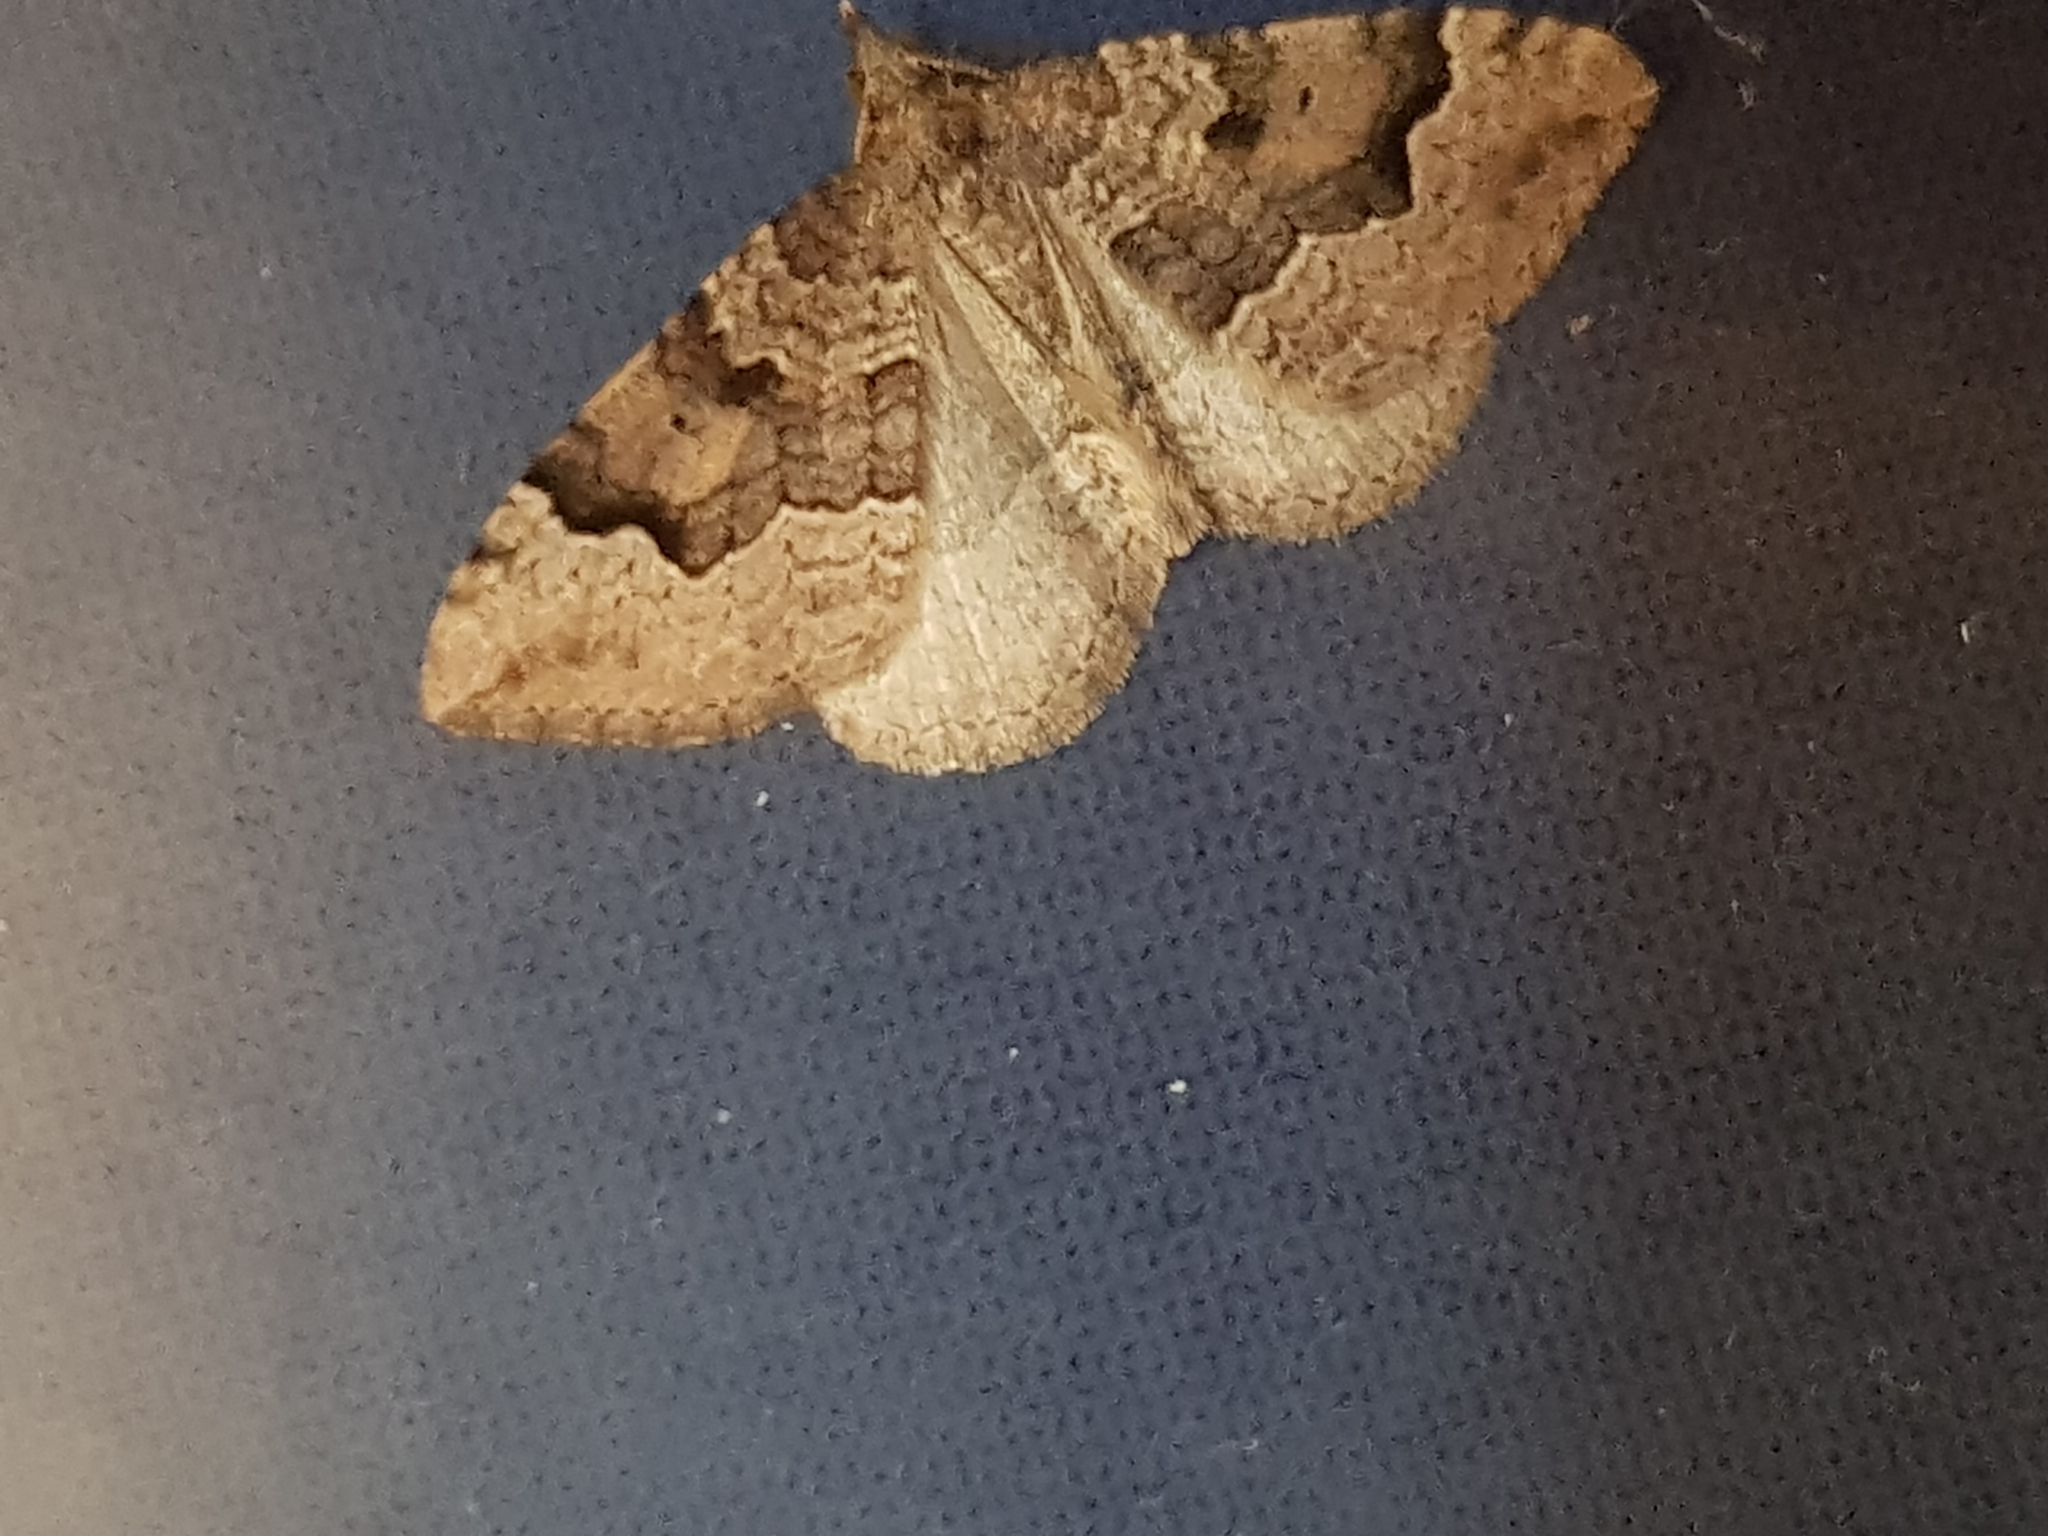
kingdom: Animalia
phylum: Arthropoda
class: Insecta
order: Lepidoptera
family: Geometridae
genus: Epyaxa
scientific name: Epyaxa rosearia
